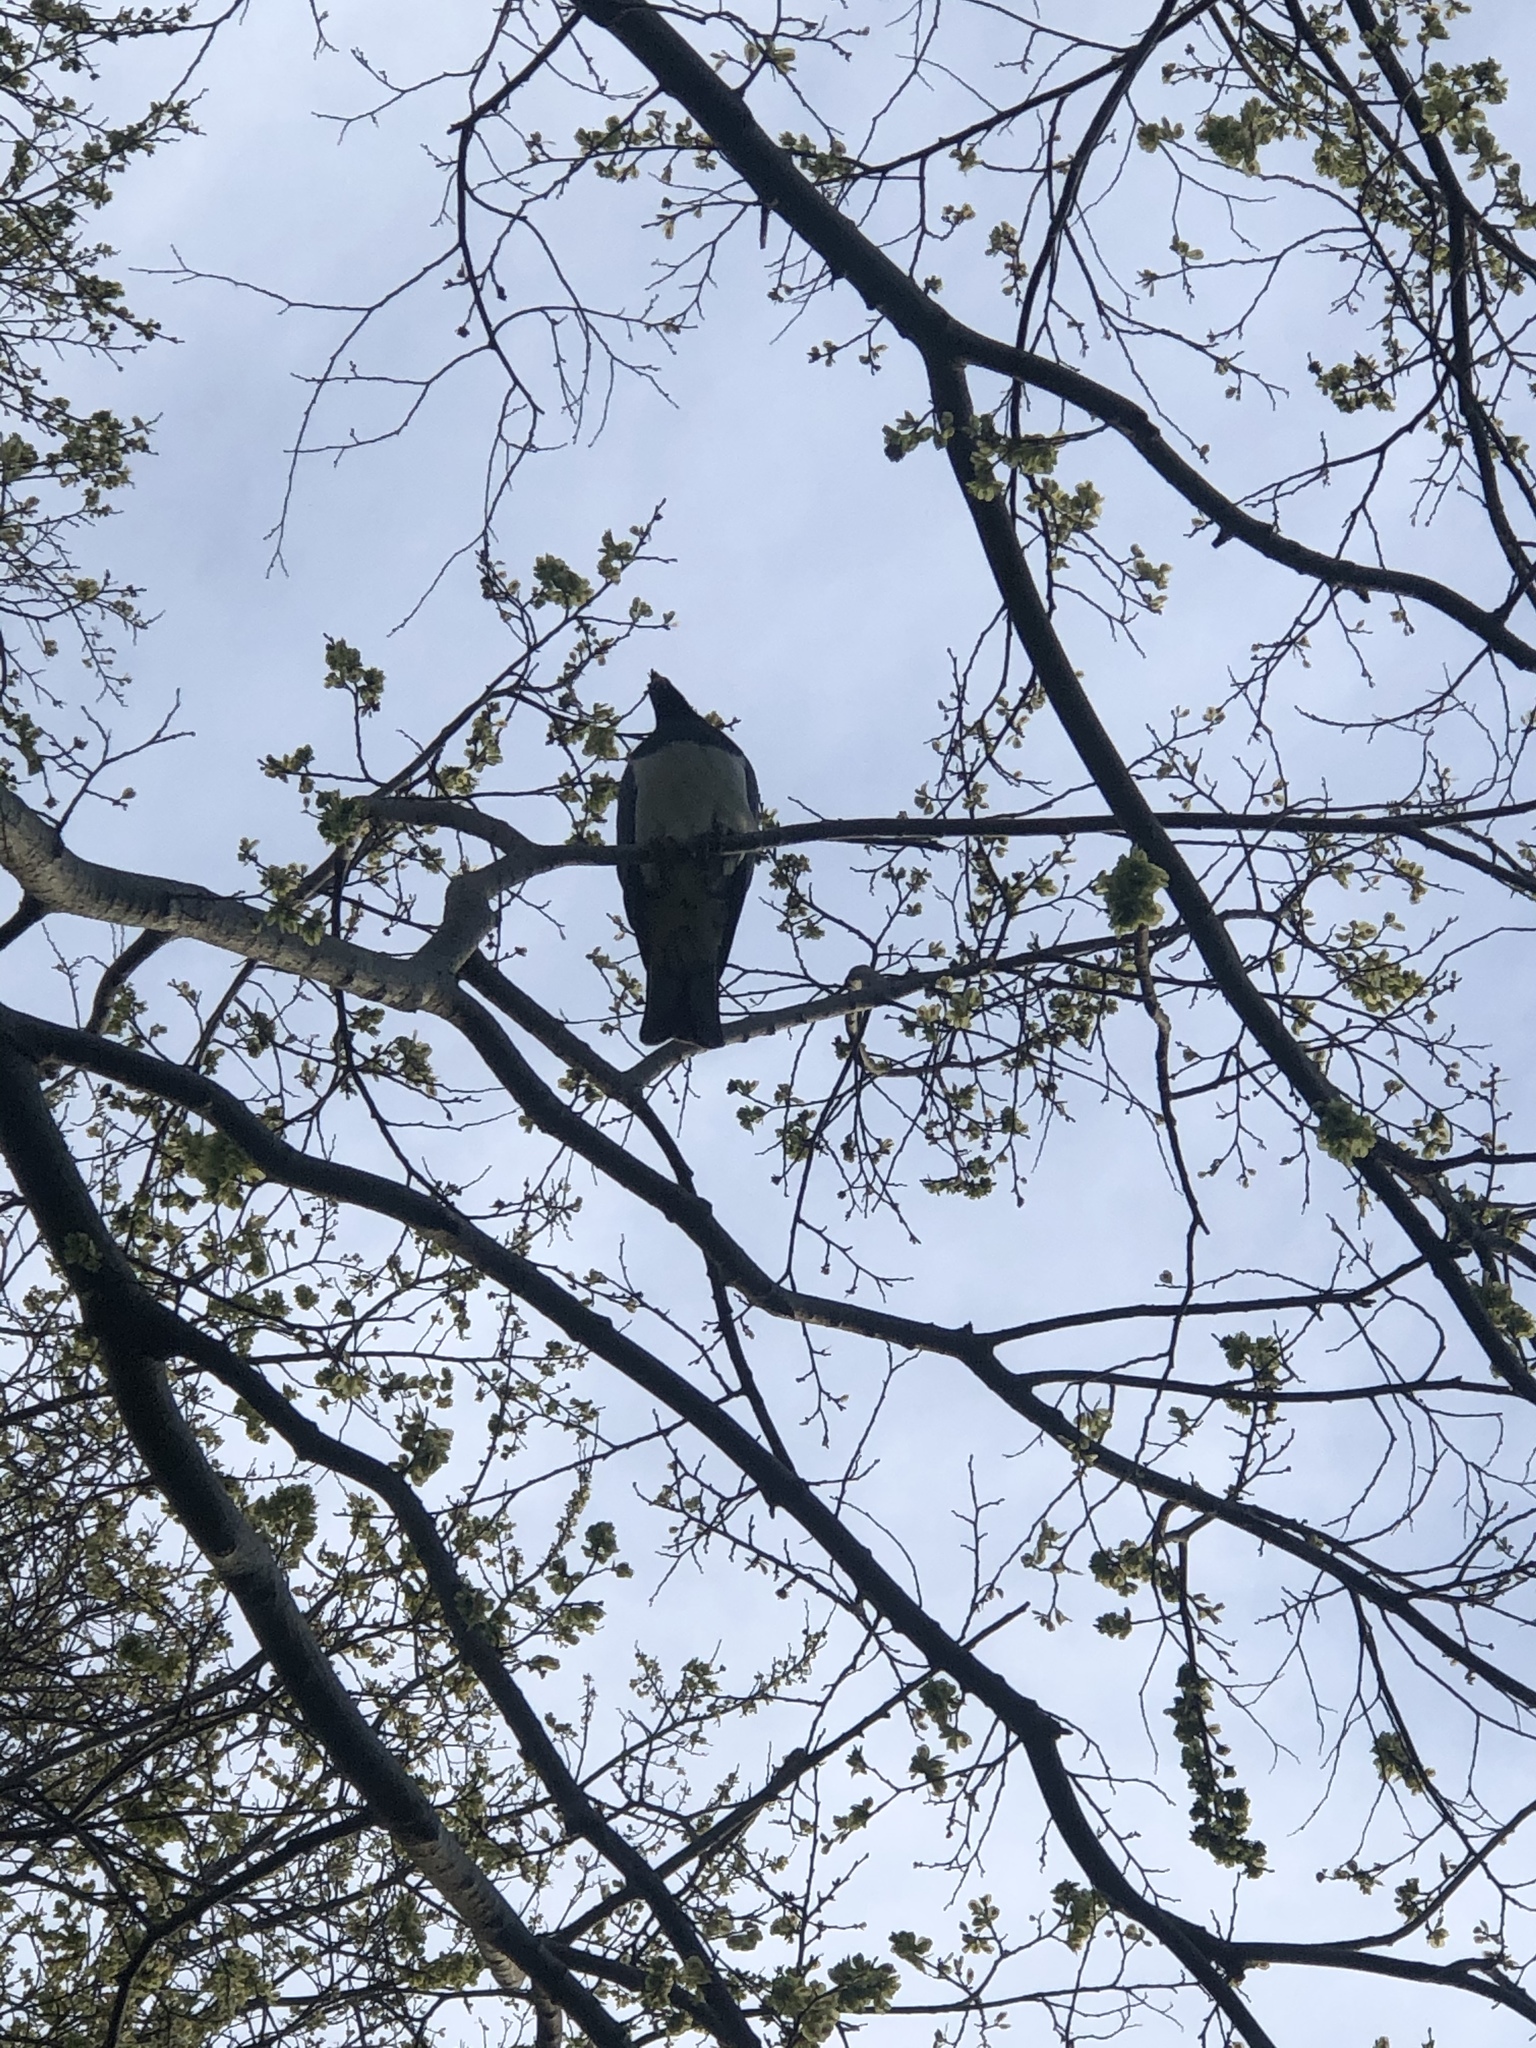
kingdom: Animalia
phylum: Chordata
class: Aves
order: Columbiformes
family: Columbidae
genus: Hemiphaga
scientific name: Hemiphaga novaeseelandiae
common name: New zealand pigeon
